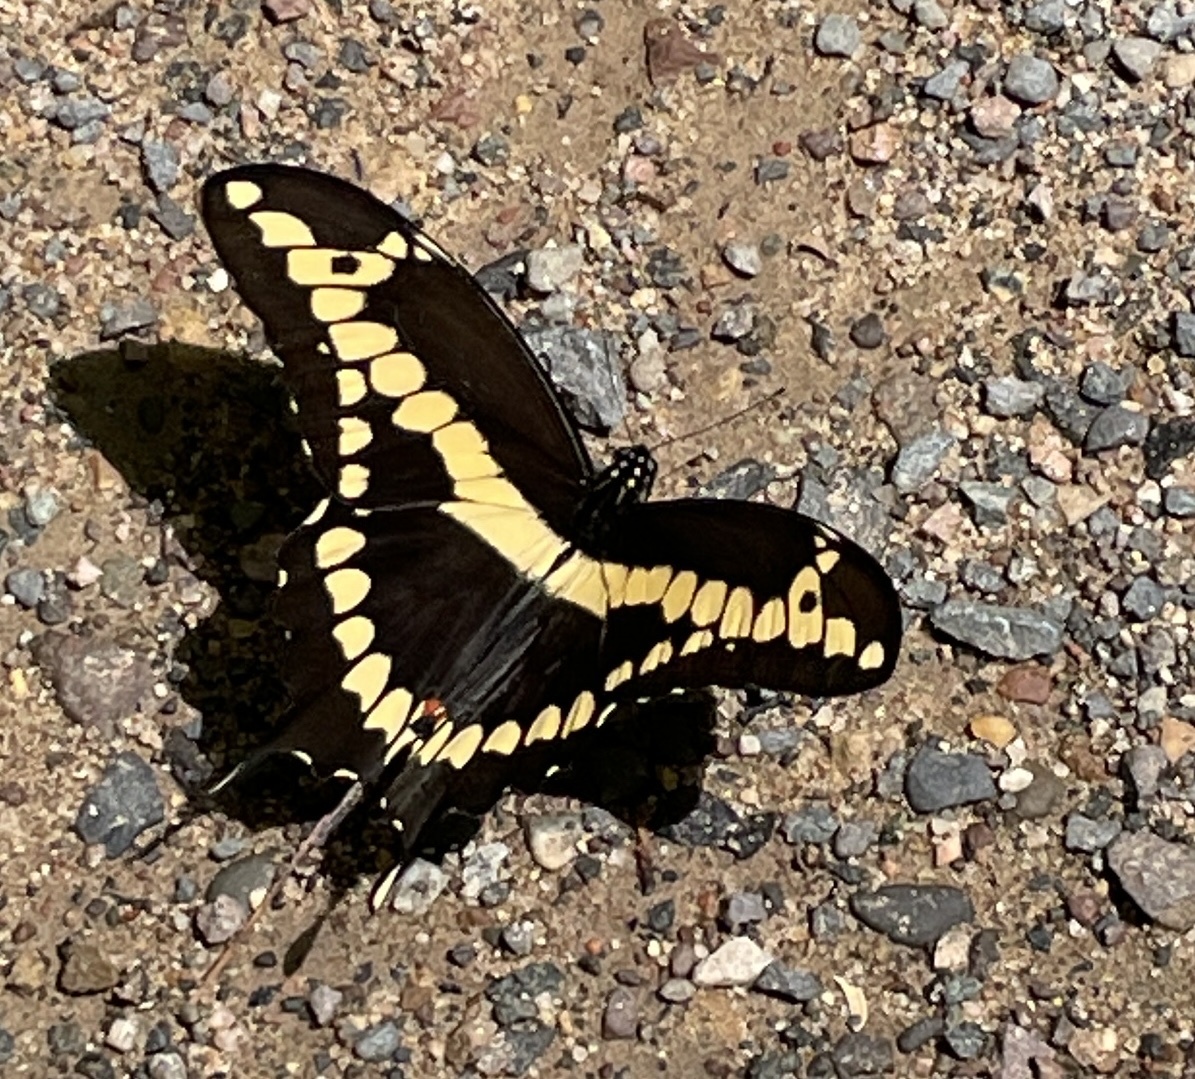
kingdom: Animalia
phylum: Arthropoda
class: Insecta
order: Lepidoptera
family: Papilionidae
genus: Papilio
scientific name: Papilio cresphontes
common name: Giant swallowtail
